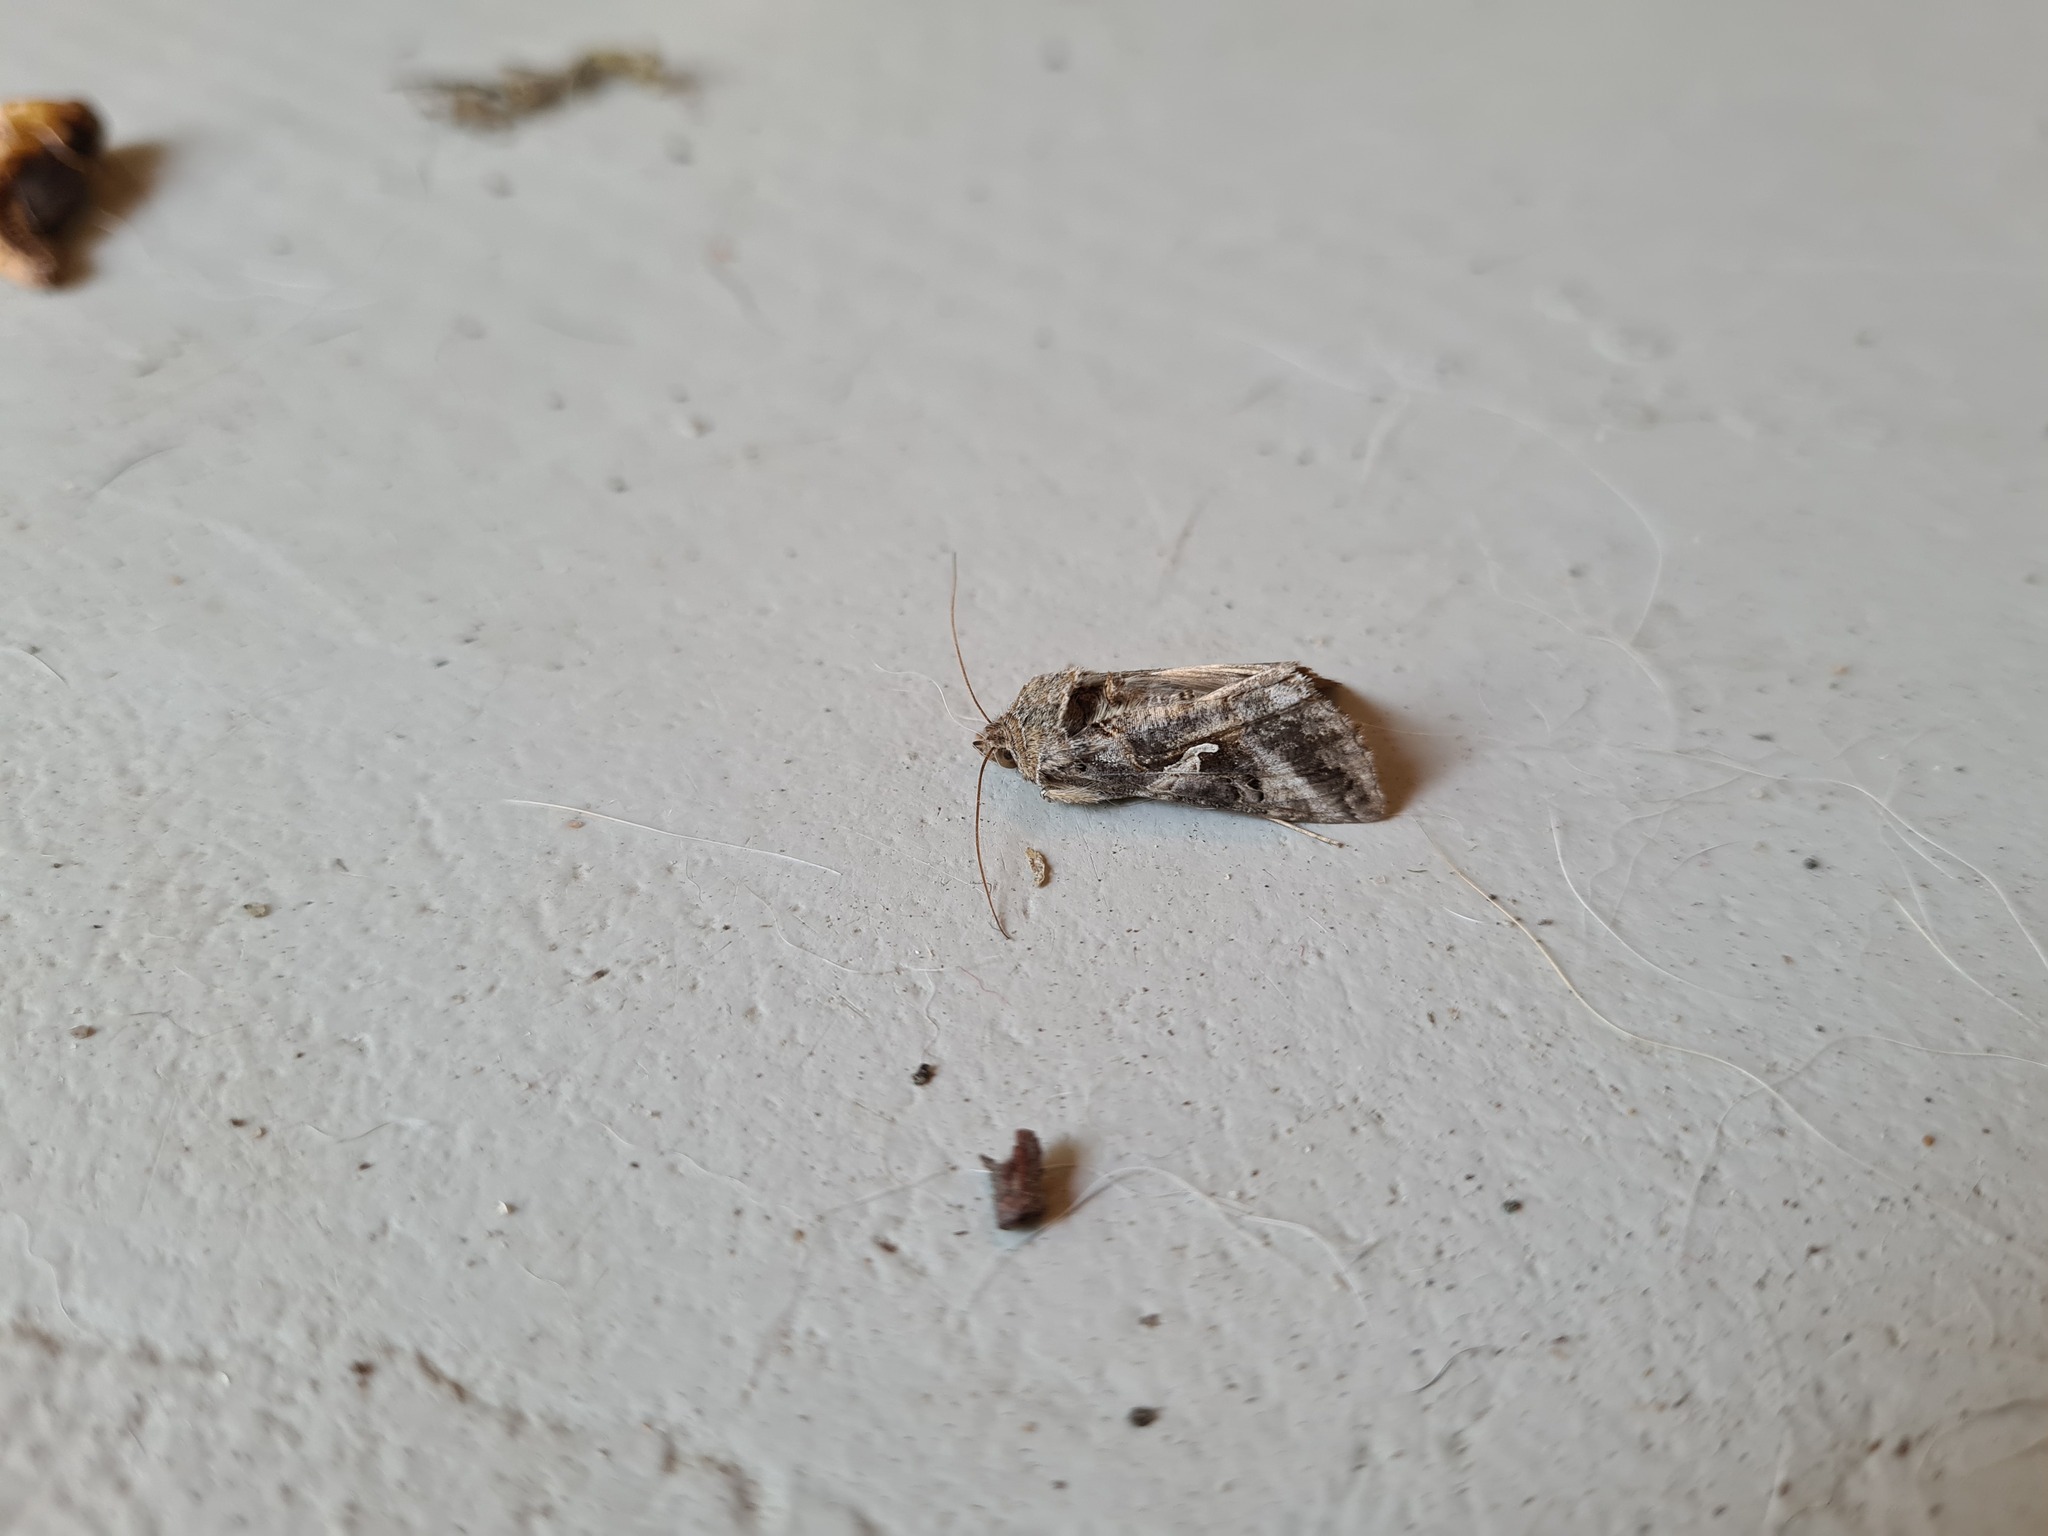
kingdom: Animalia
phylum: Arthropoda
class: Insecta
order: Lepidoptera
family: Noctuidae
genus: Autographa
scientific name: Autographa gamma
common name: Silver y
